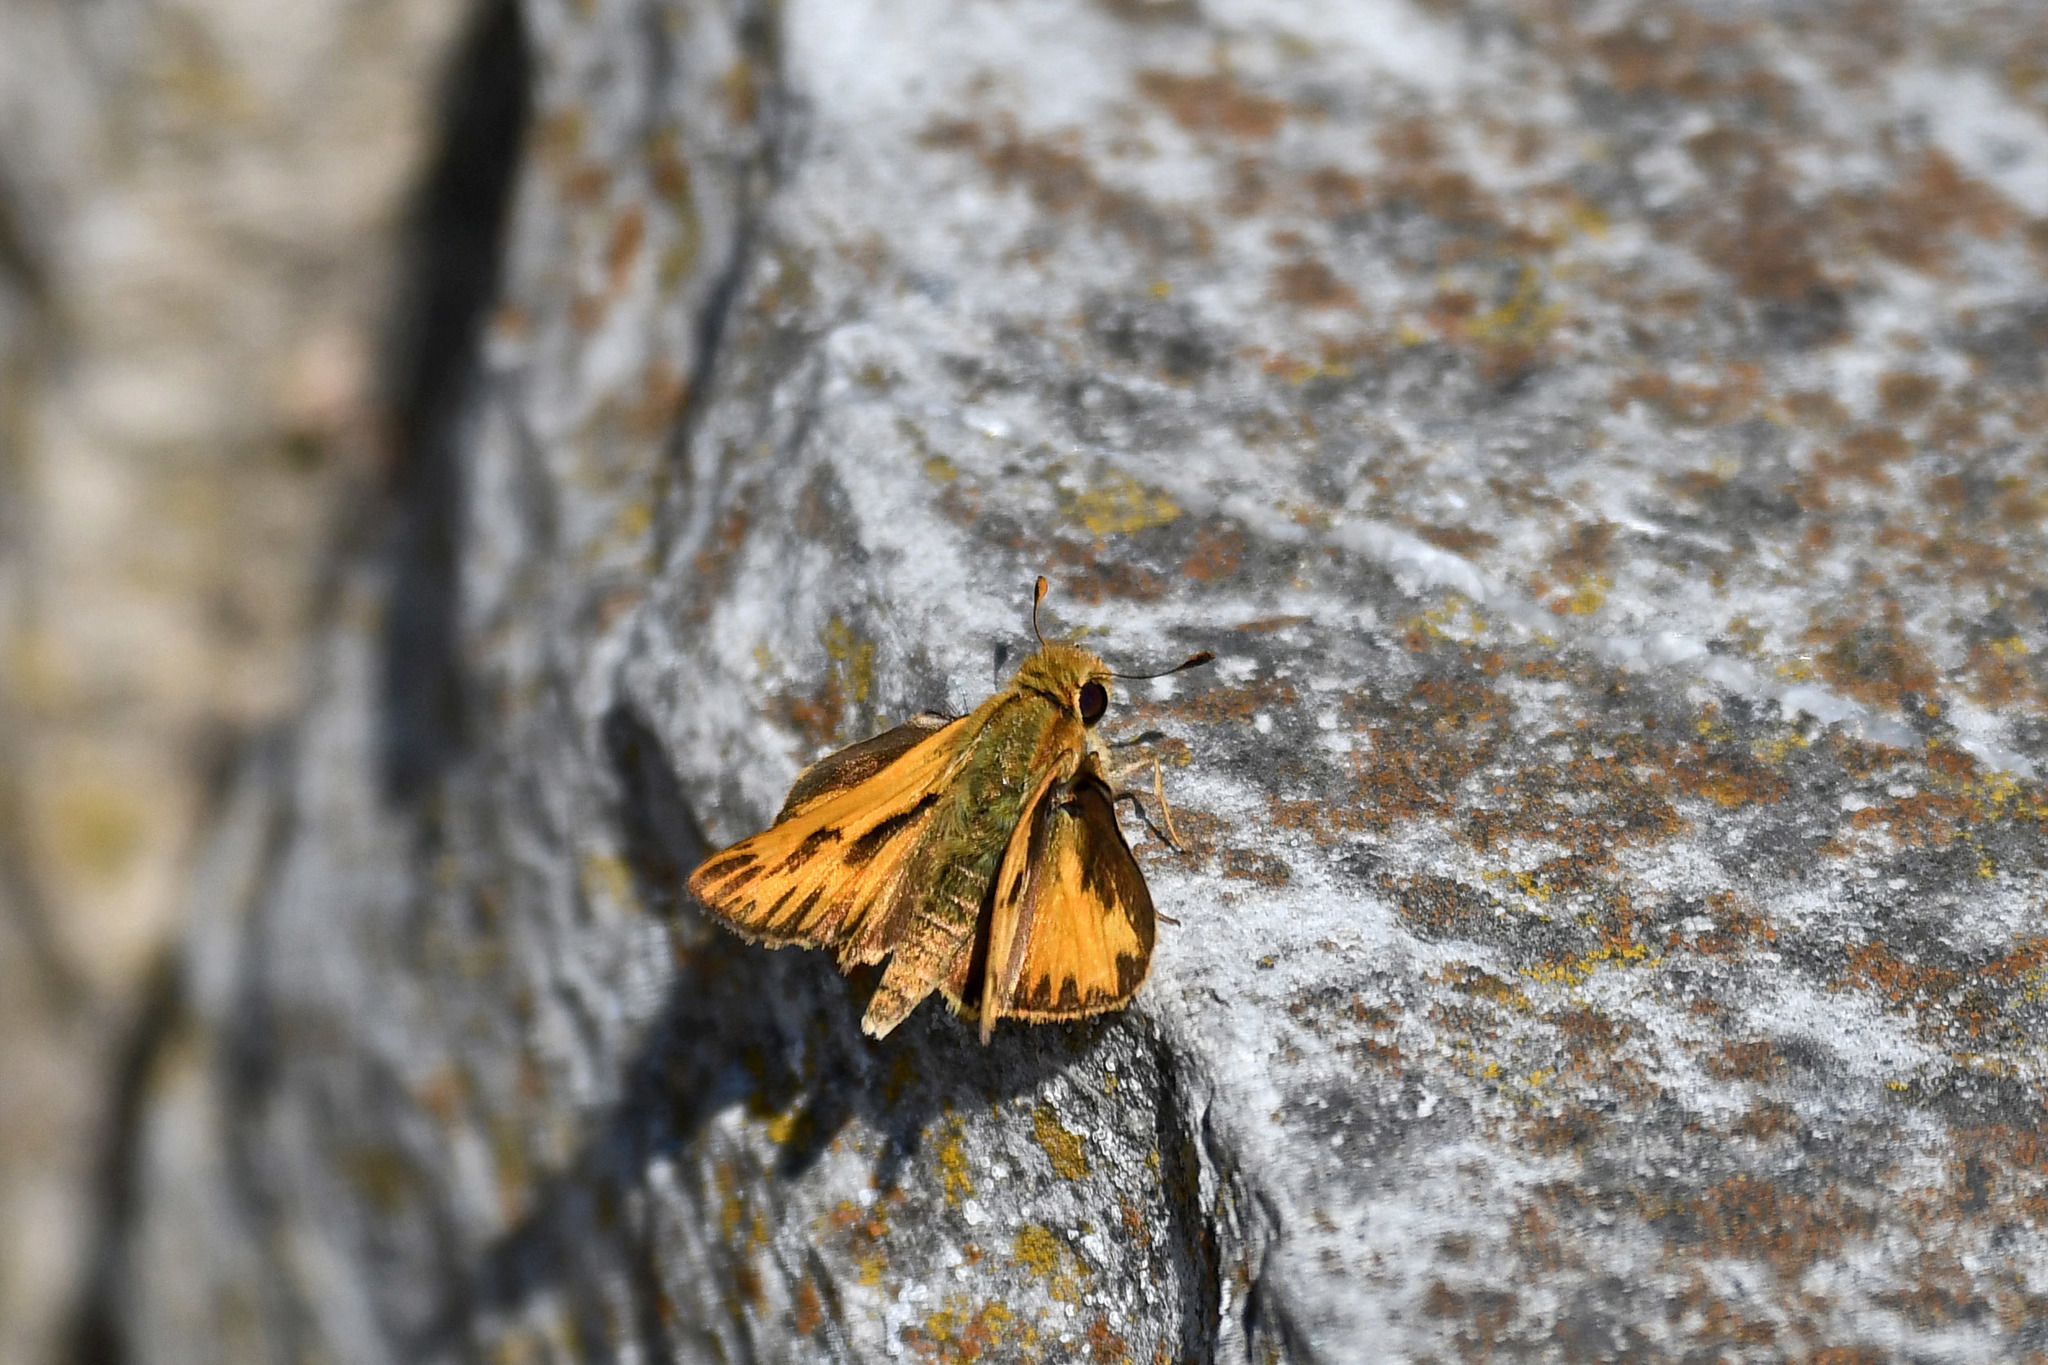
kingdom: Animalia
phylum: Arthropoda
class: Insecta
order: Lepidoptera
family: Hesperiidae
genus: Hylephila
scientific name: Hylephila phyleus
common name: Fiery skipper
